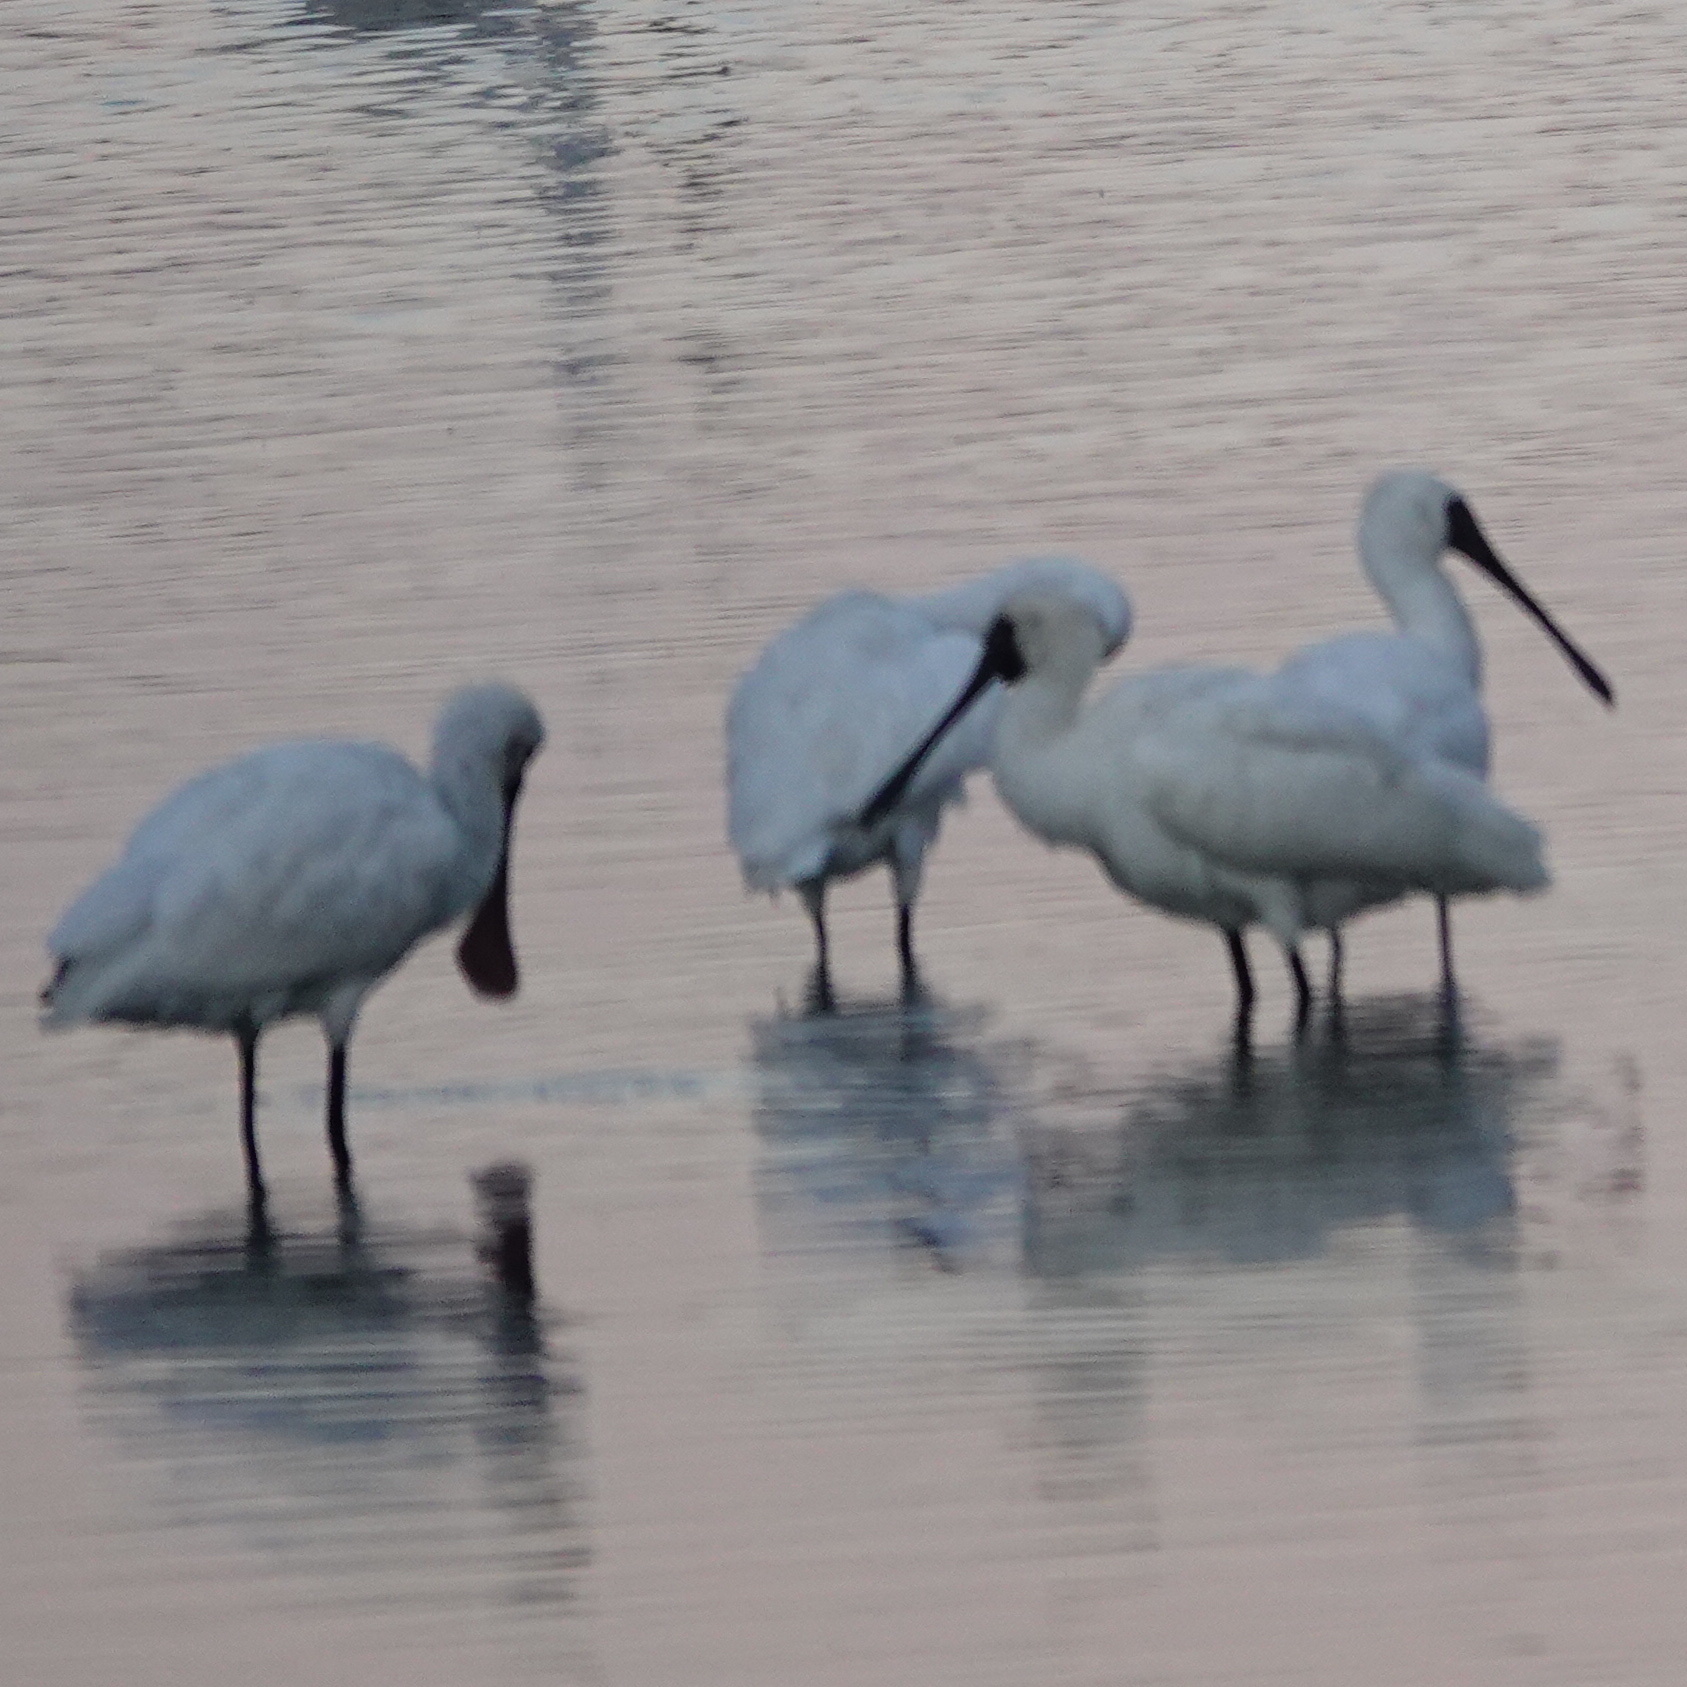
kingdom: Animalia
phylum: Chordata
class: Aves
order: Pelecaniformes
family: Threskiornithidae
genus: Platalea
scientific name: Platalea minor
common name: Black-faced spoonbill
